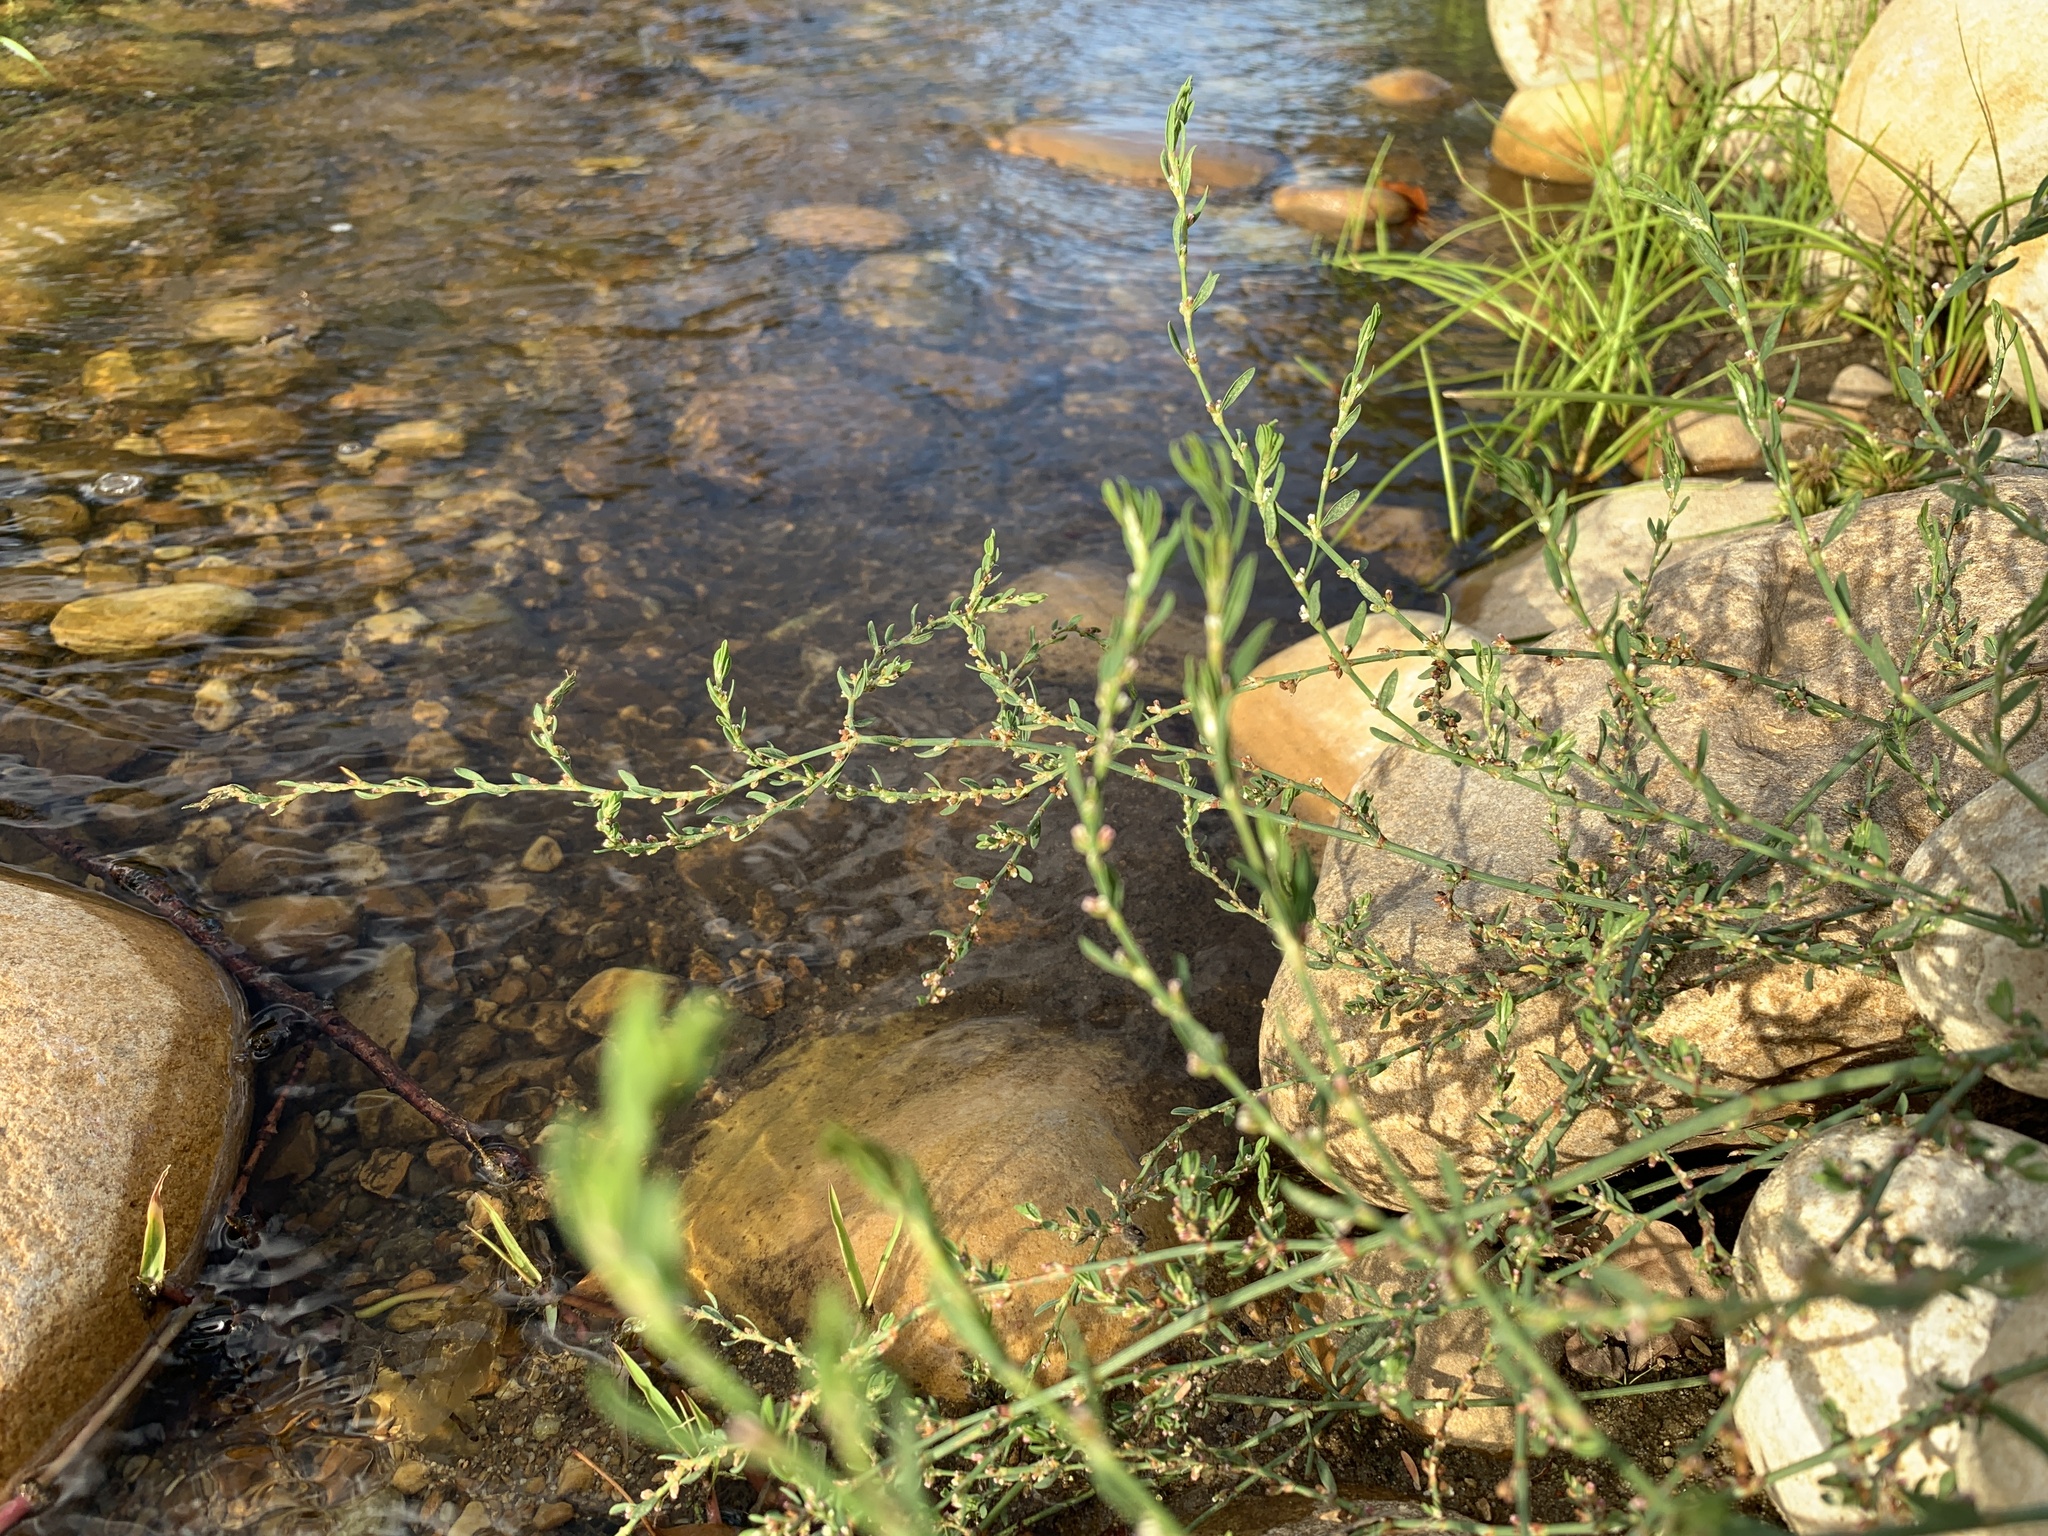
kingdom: Plantae
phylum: Tracheophyta
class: Magnoliopsida
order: Caryophyllales
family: Polygonaceae
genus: Polygonum
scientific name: Polygonum aviculare
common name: Prostrate knotweed
